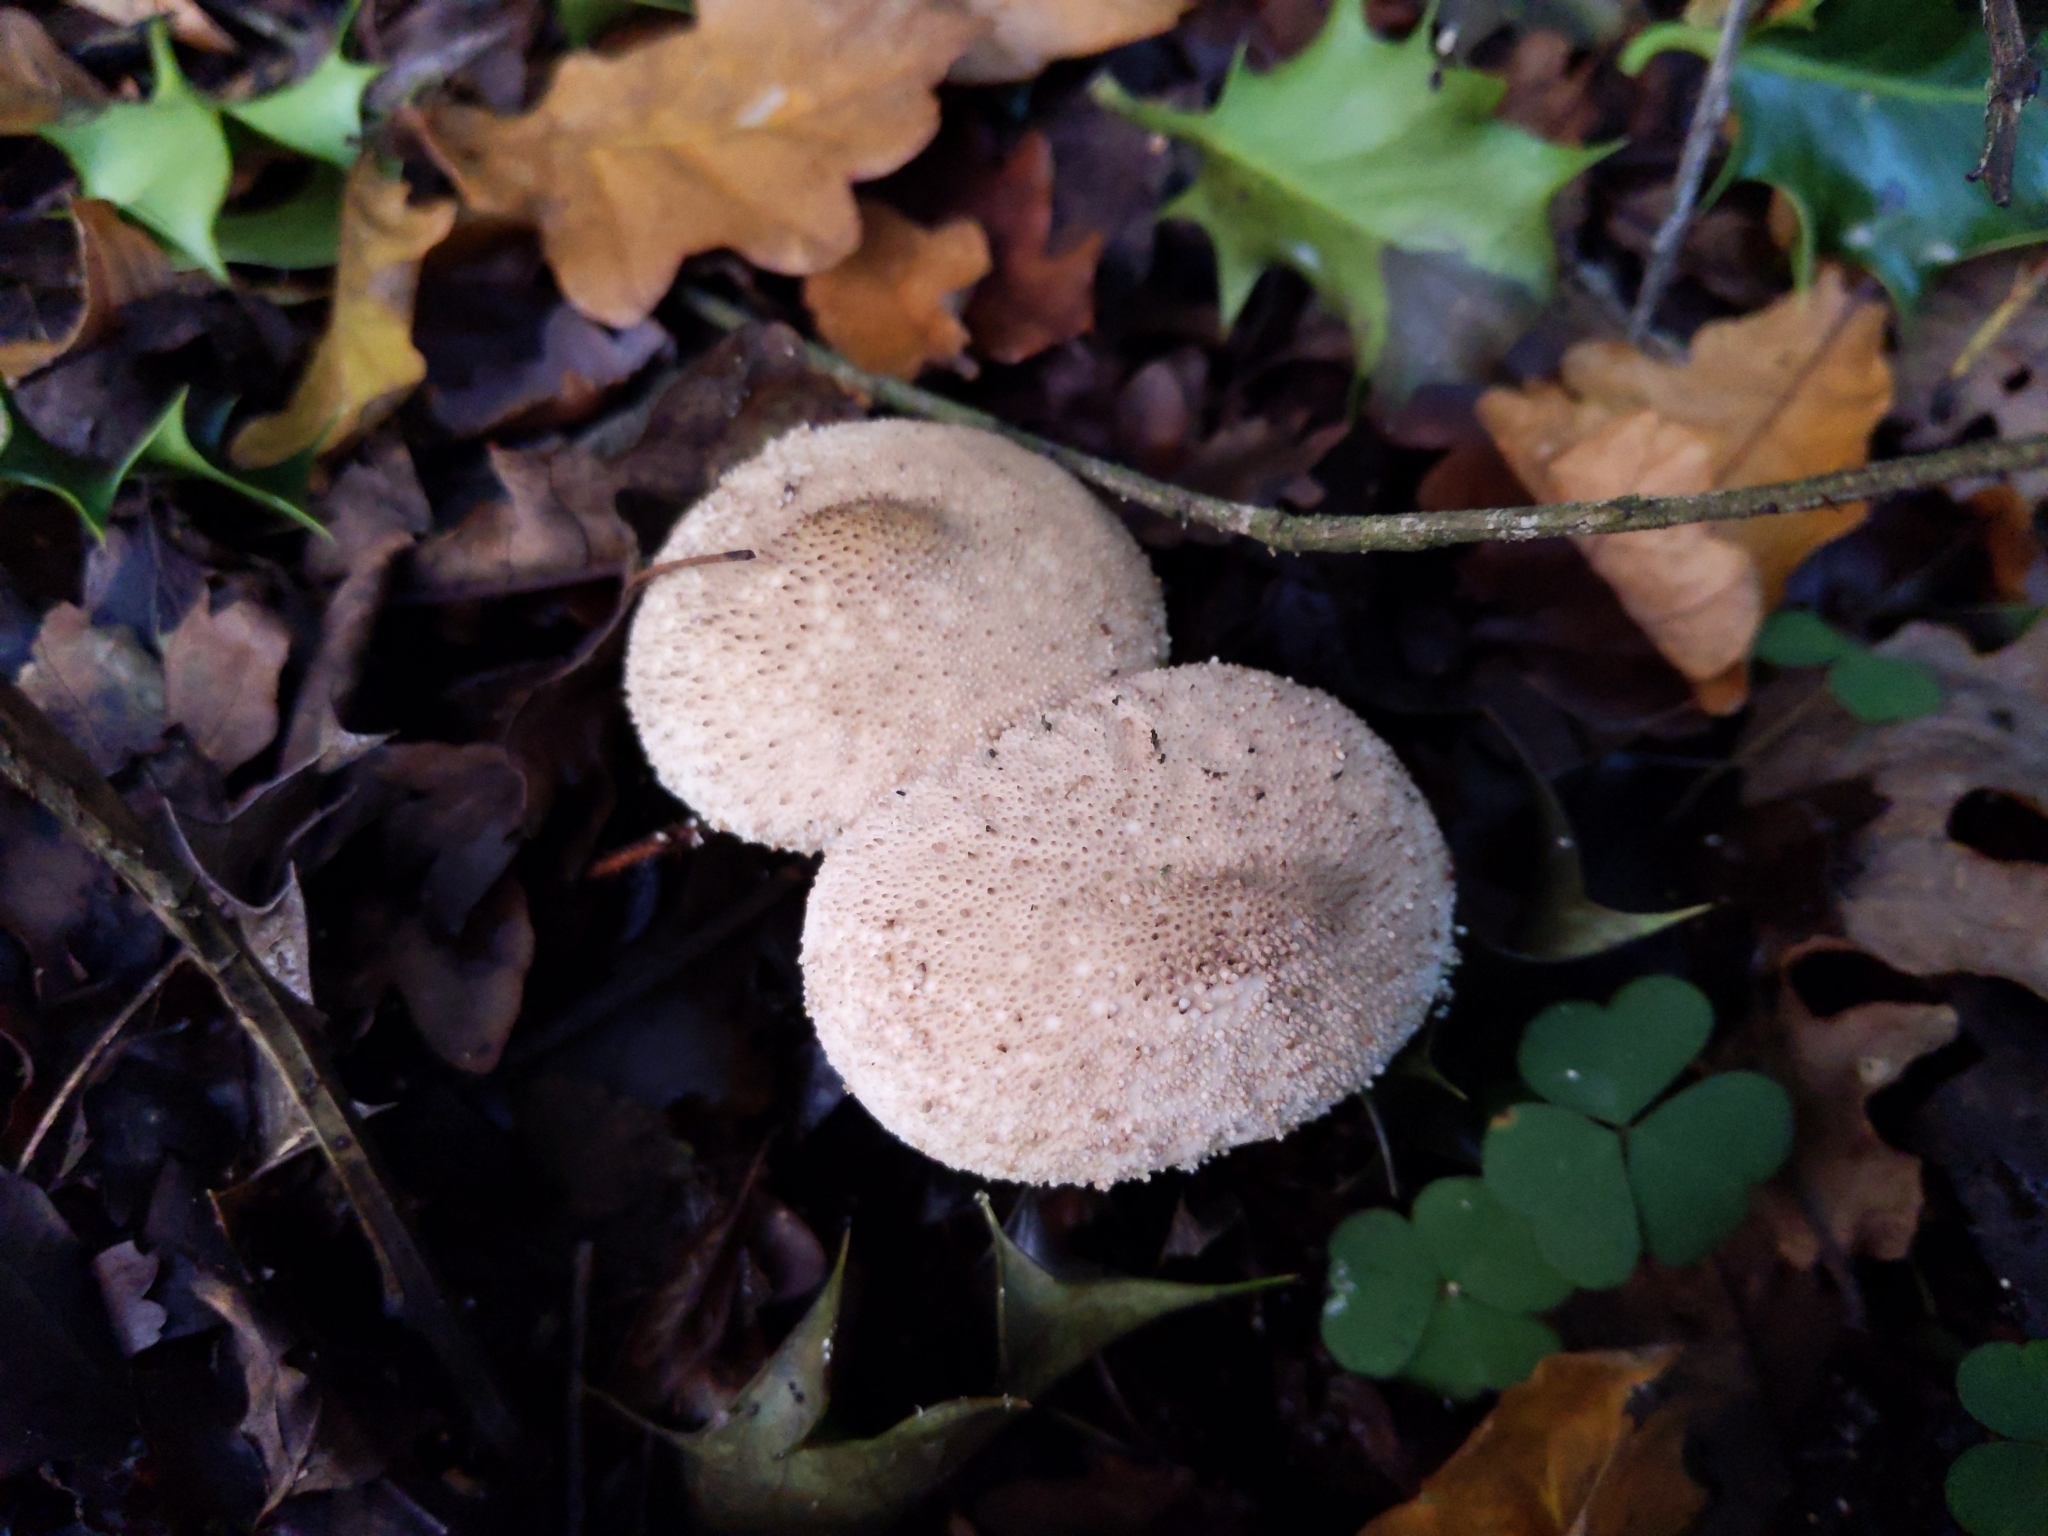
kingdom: Fungi
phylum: Basidiomycota
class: Agaricomycetes
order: Agaricales
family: Lycoperdaceae
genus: Lycoperdon
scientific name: Lycoperdon perlatum
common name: Common puffball
